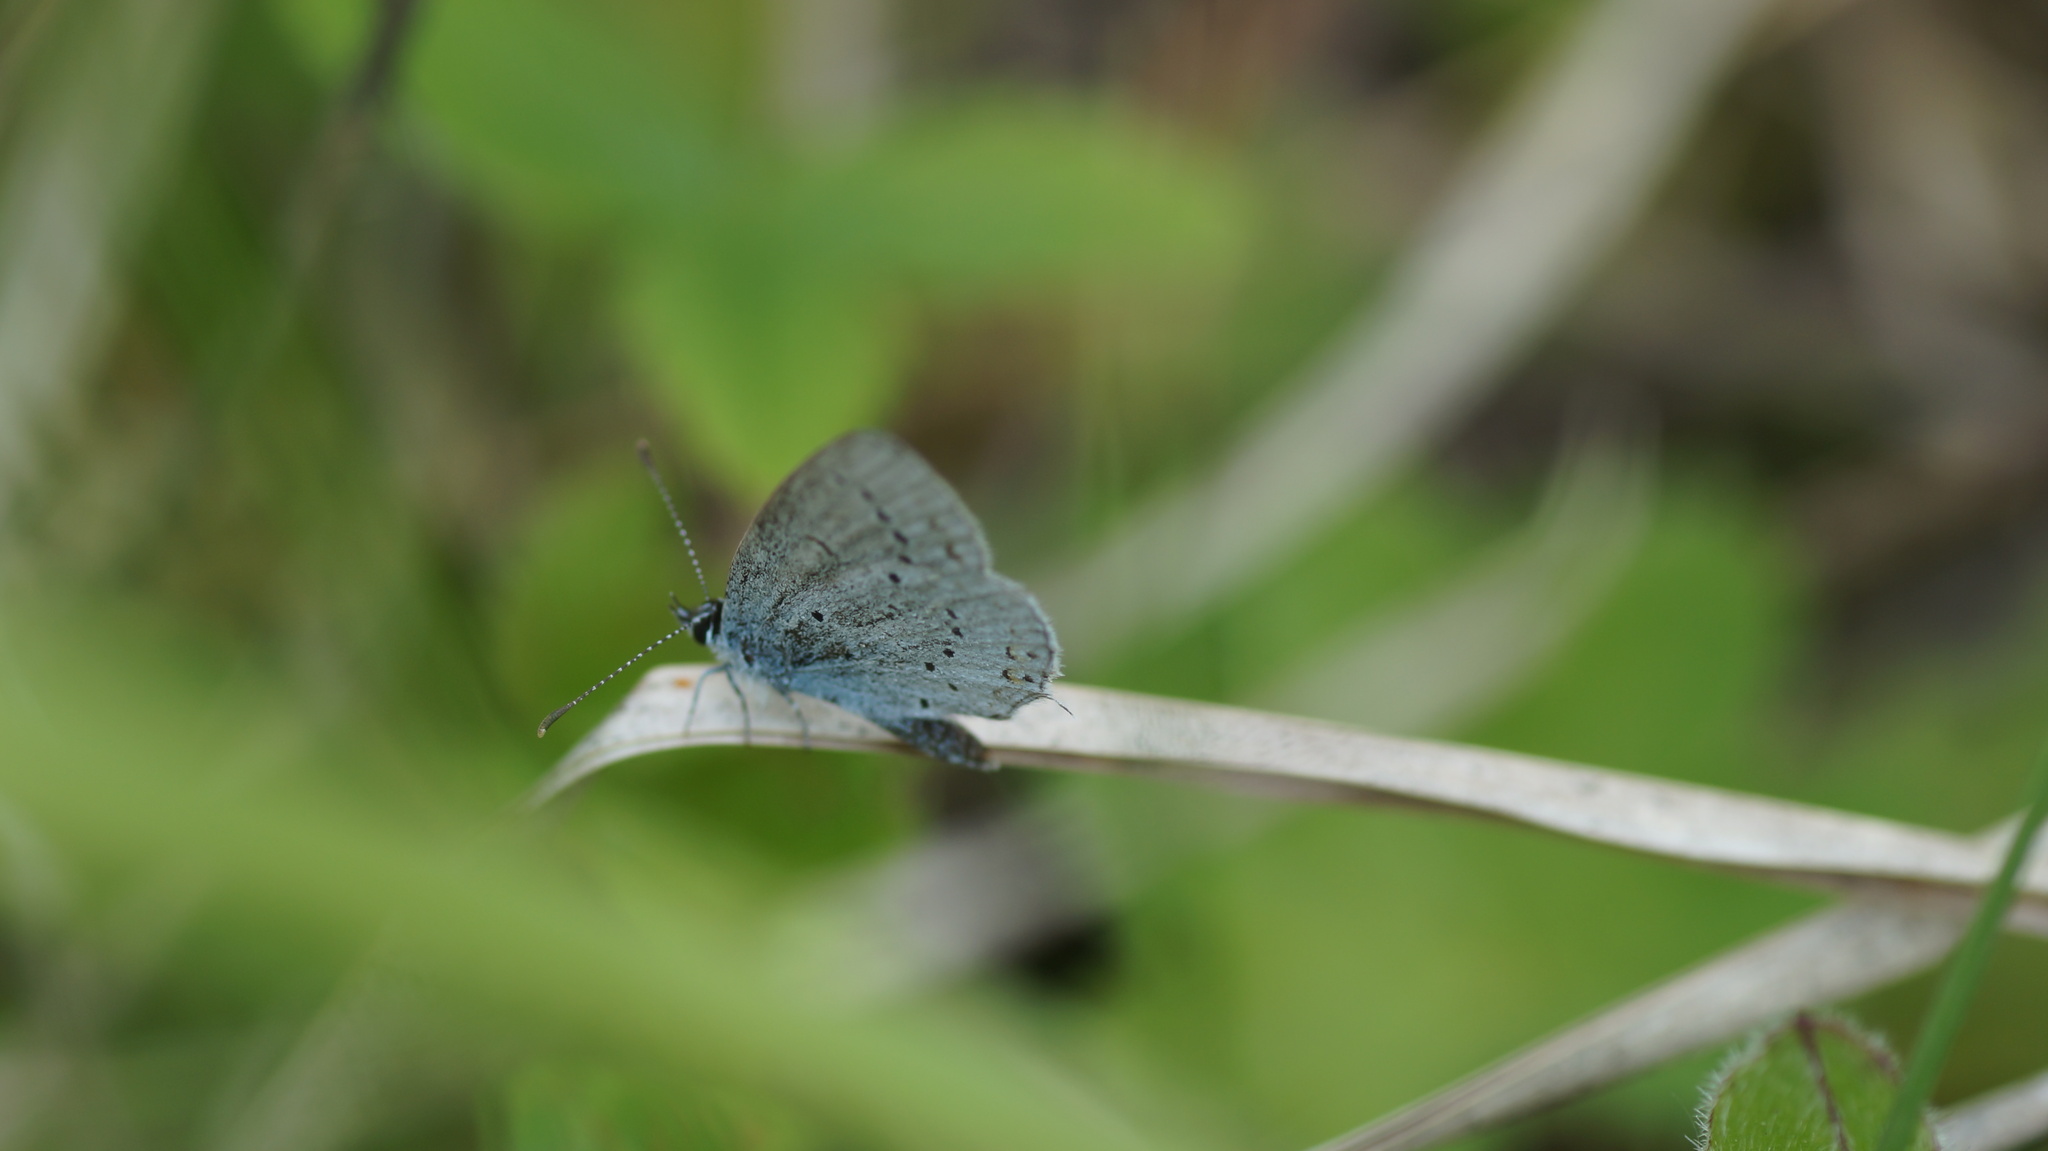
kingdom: Animalia
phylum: Arthropoda
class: Insecta
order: Lepidoptera
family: Lycaenidae
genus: Elkalyce
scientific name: Elkalyce argiades
